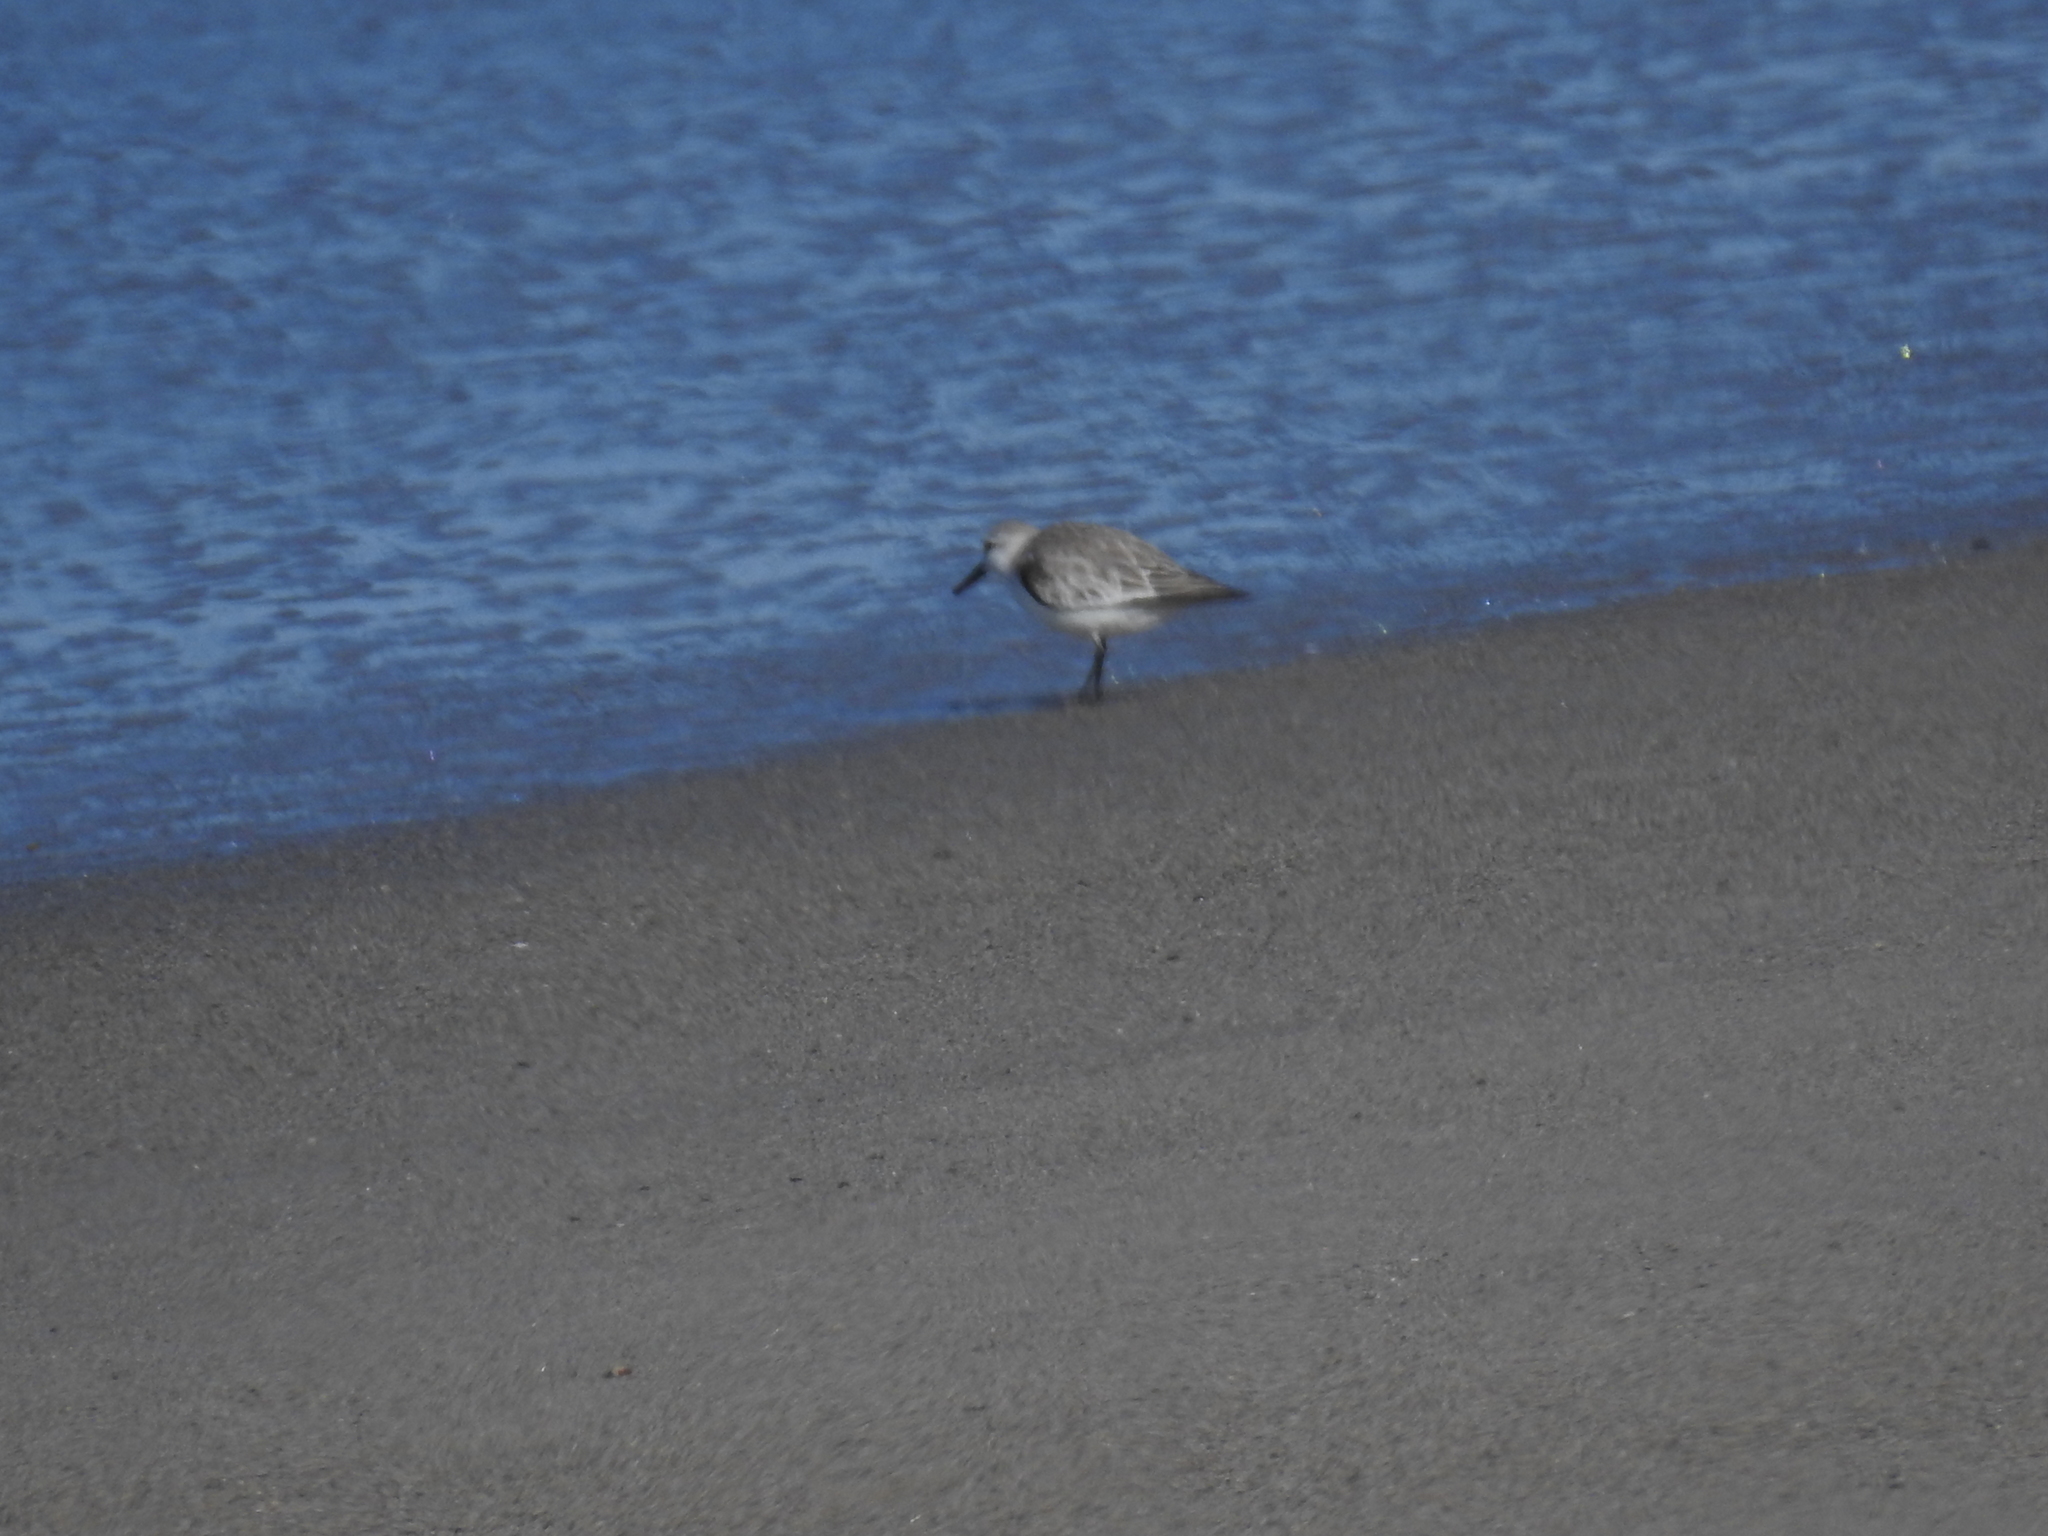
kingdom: Animalia
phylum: Chordata
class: Aves
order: Charadriiformes
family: Scolopacidae
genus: Calidris
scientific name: Calidris alba
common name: Sanderling
